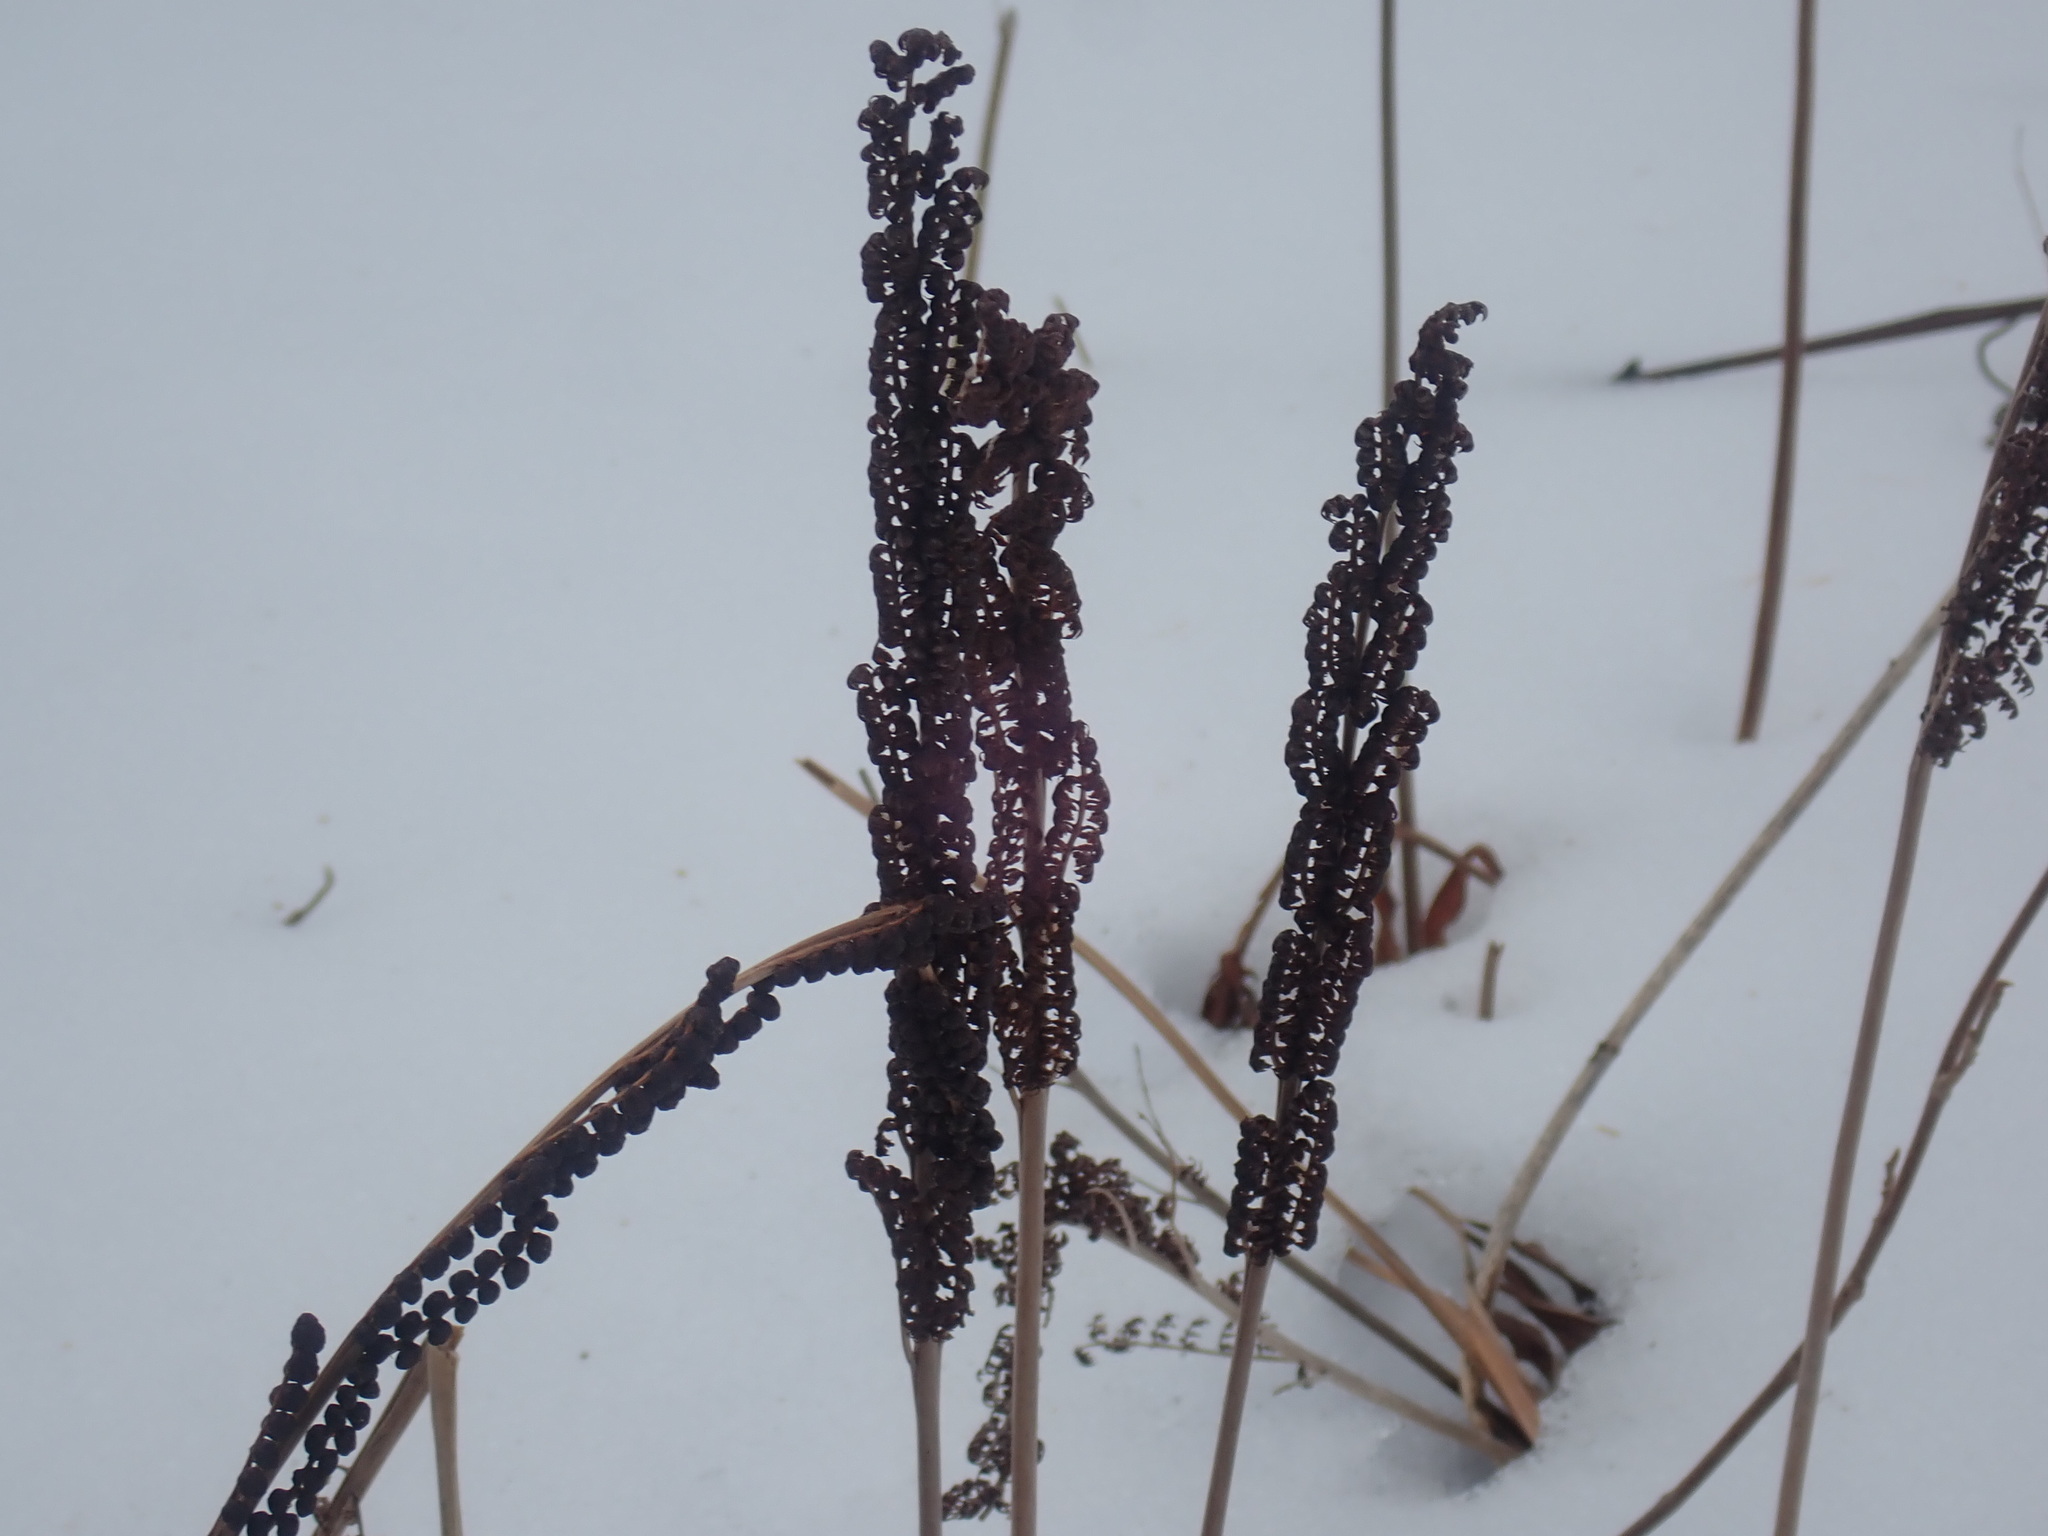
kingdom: Plantae
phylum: Tracheophyta
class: Polypodiopsida
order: Polypodiales
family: Onocleaceae
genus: Onoclea
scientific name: Onoclea sensibilis
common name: Sensitive fern
